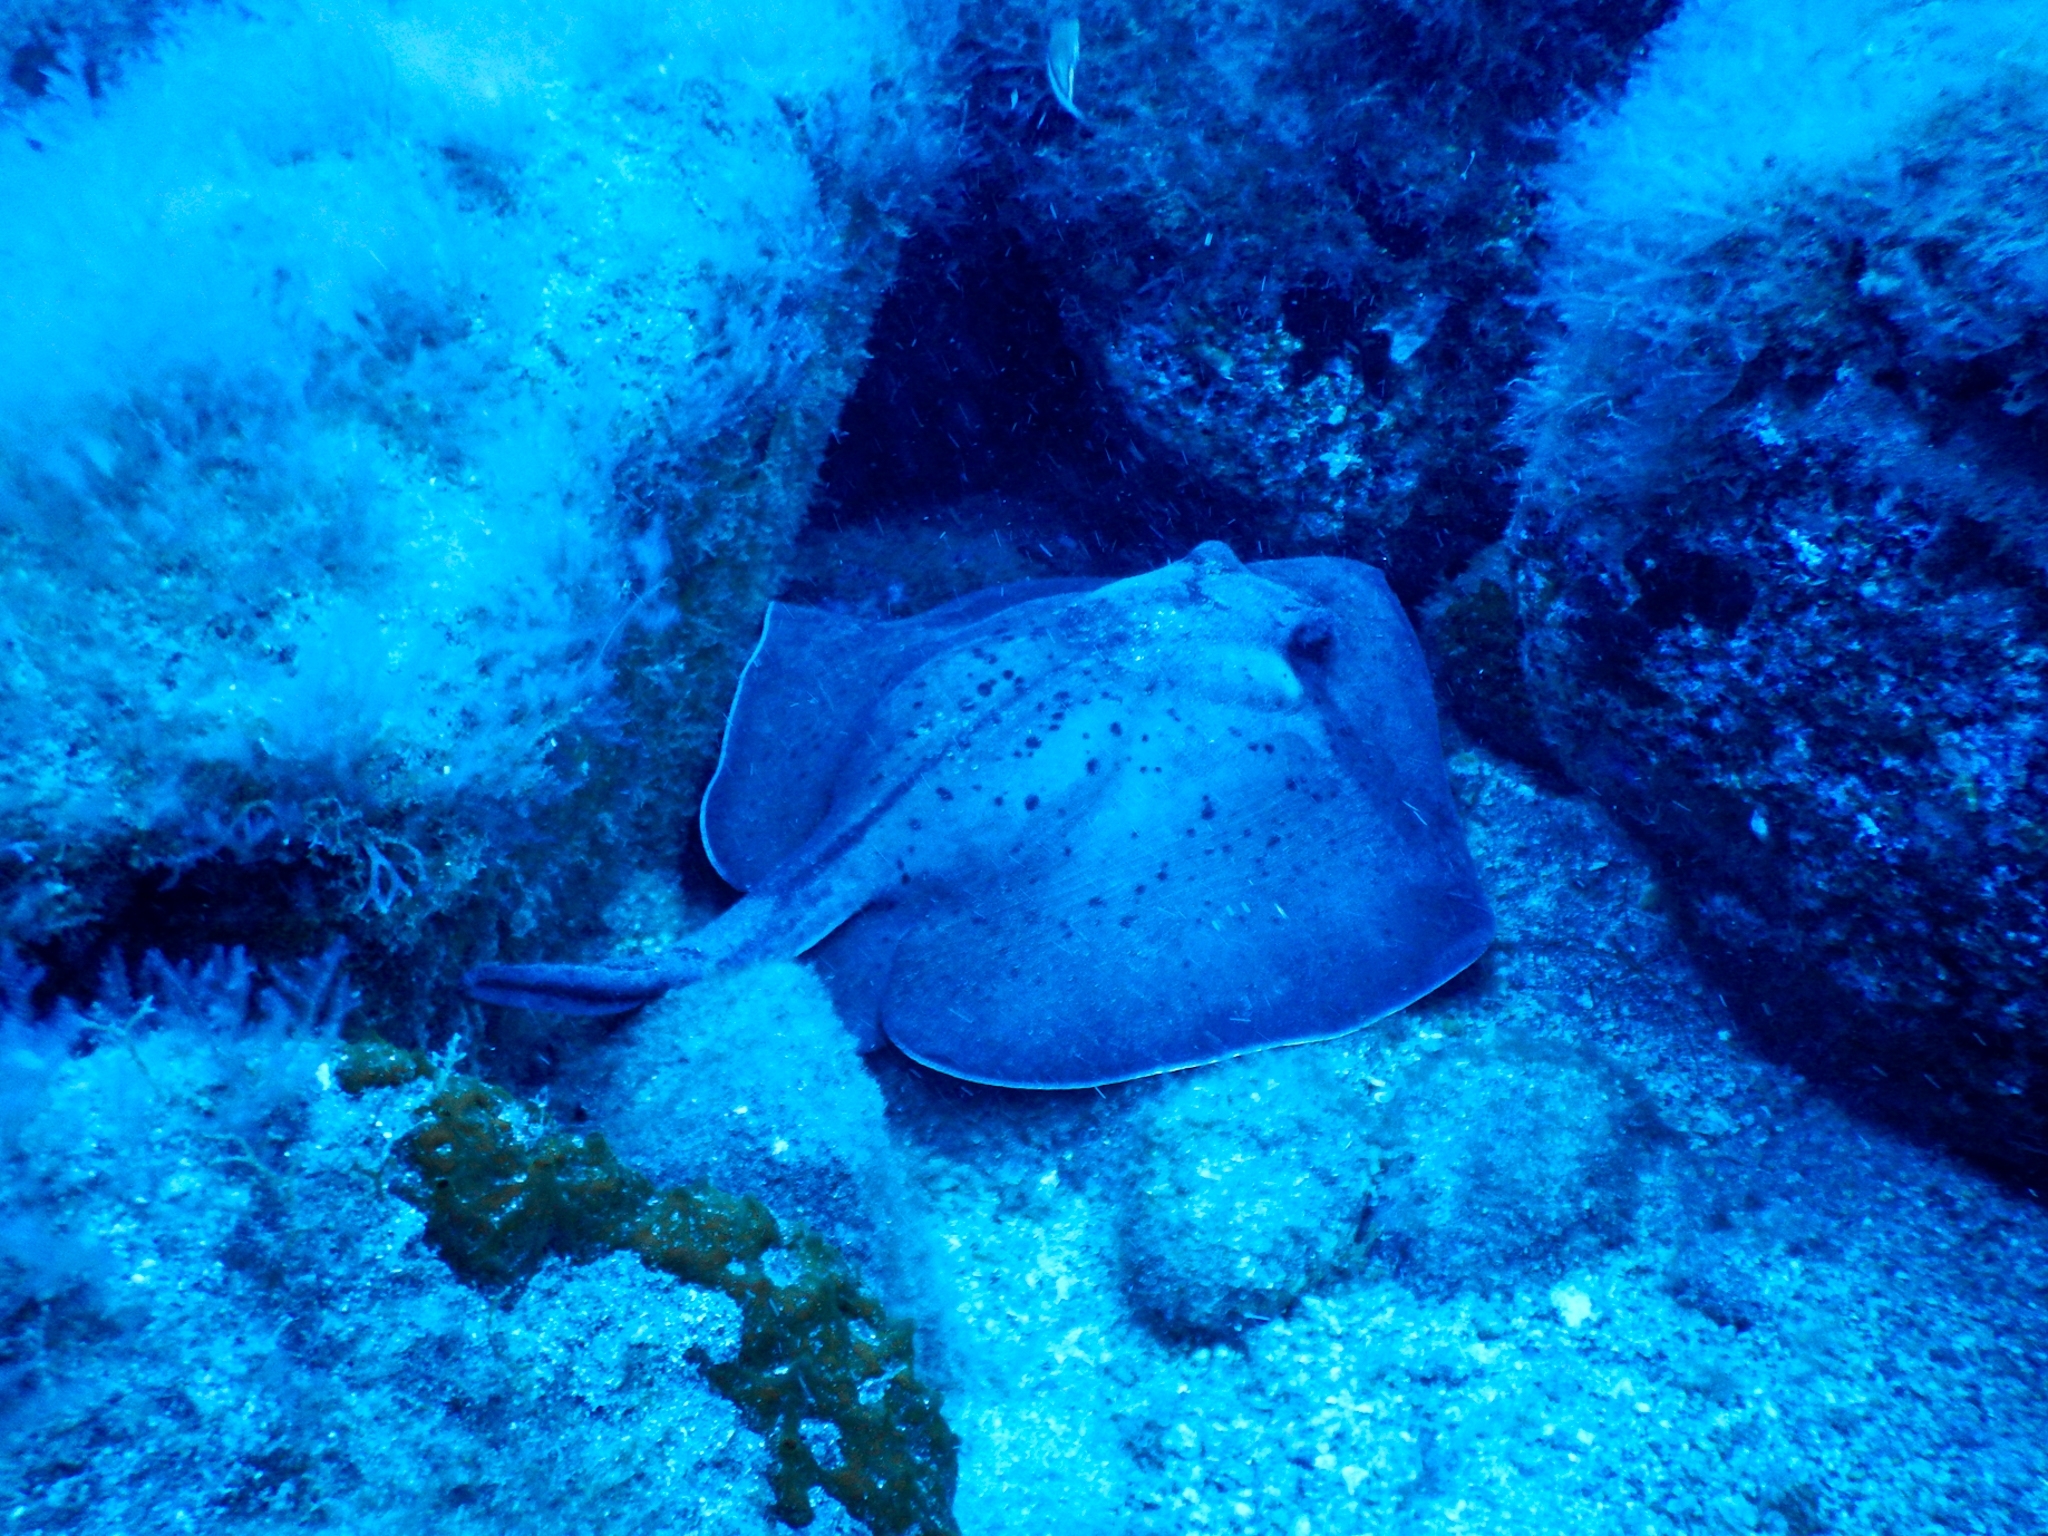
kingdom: Animalia
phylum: Chordata
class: Elasmobranchii
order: Myliobatiformes
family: Dasyatidae
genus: Taeniura
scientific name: Taeniura grabata
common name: Round stingray
